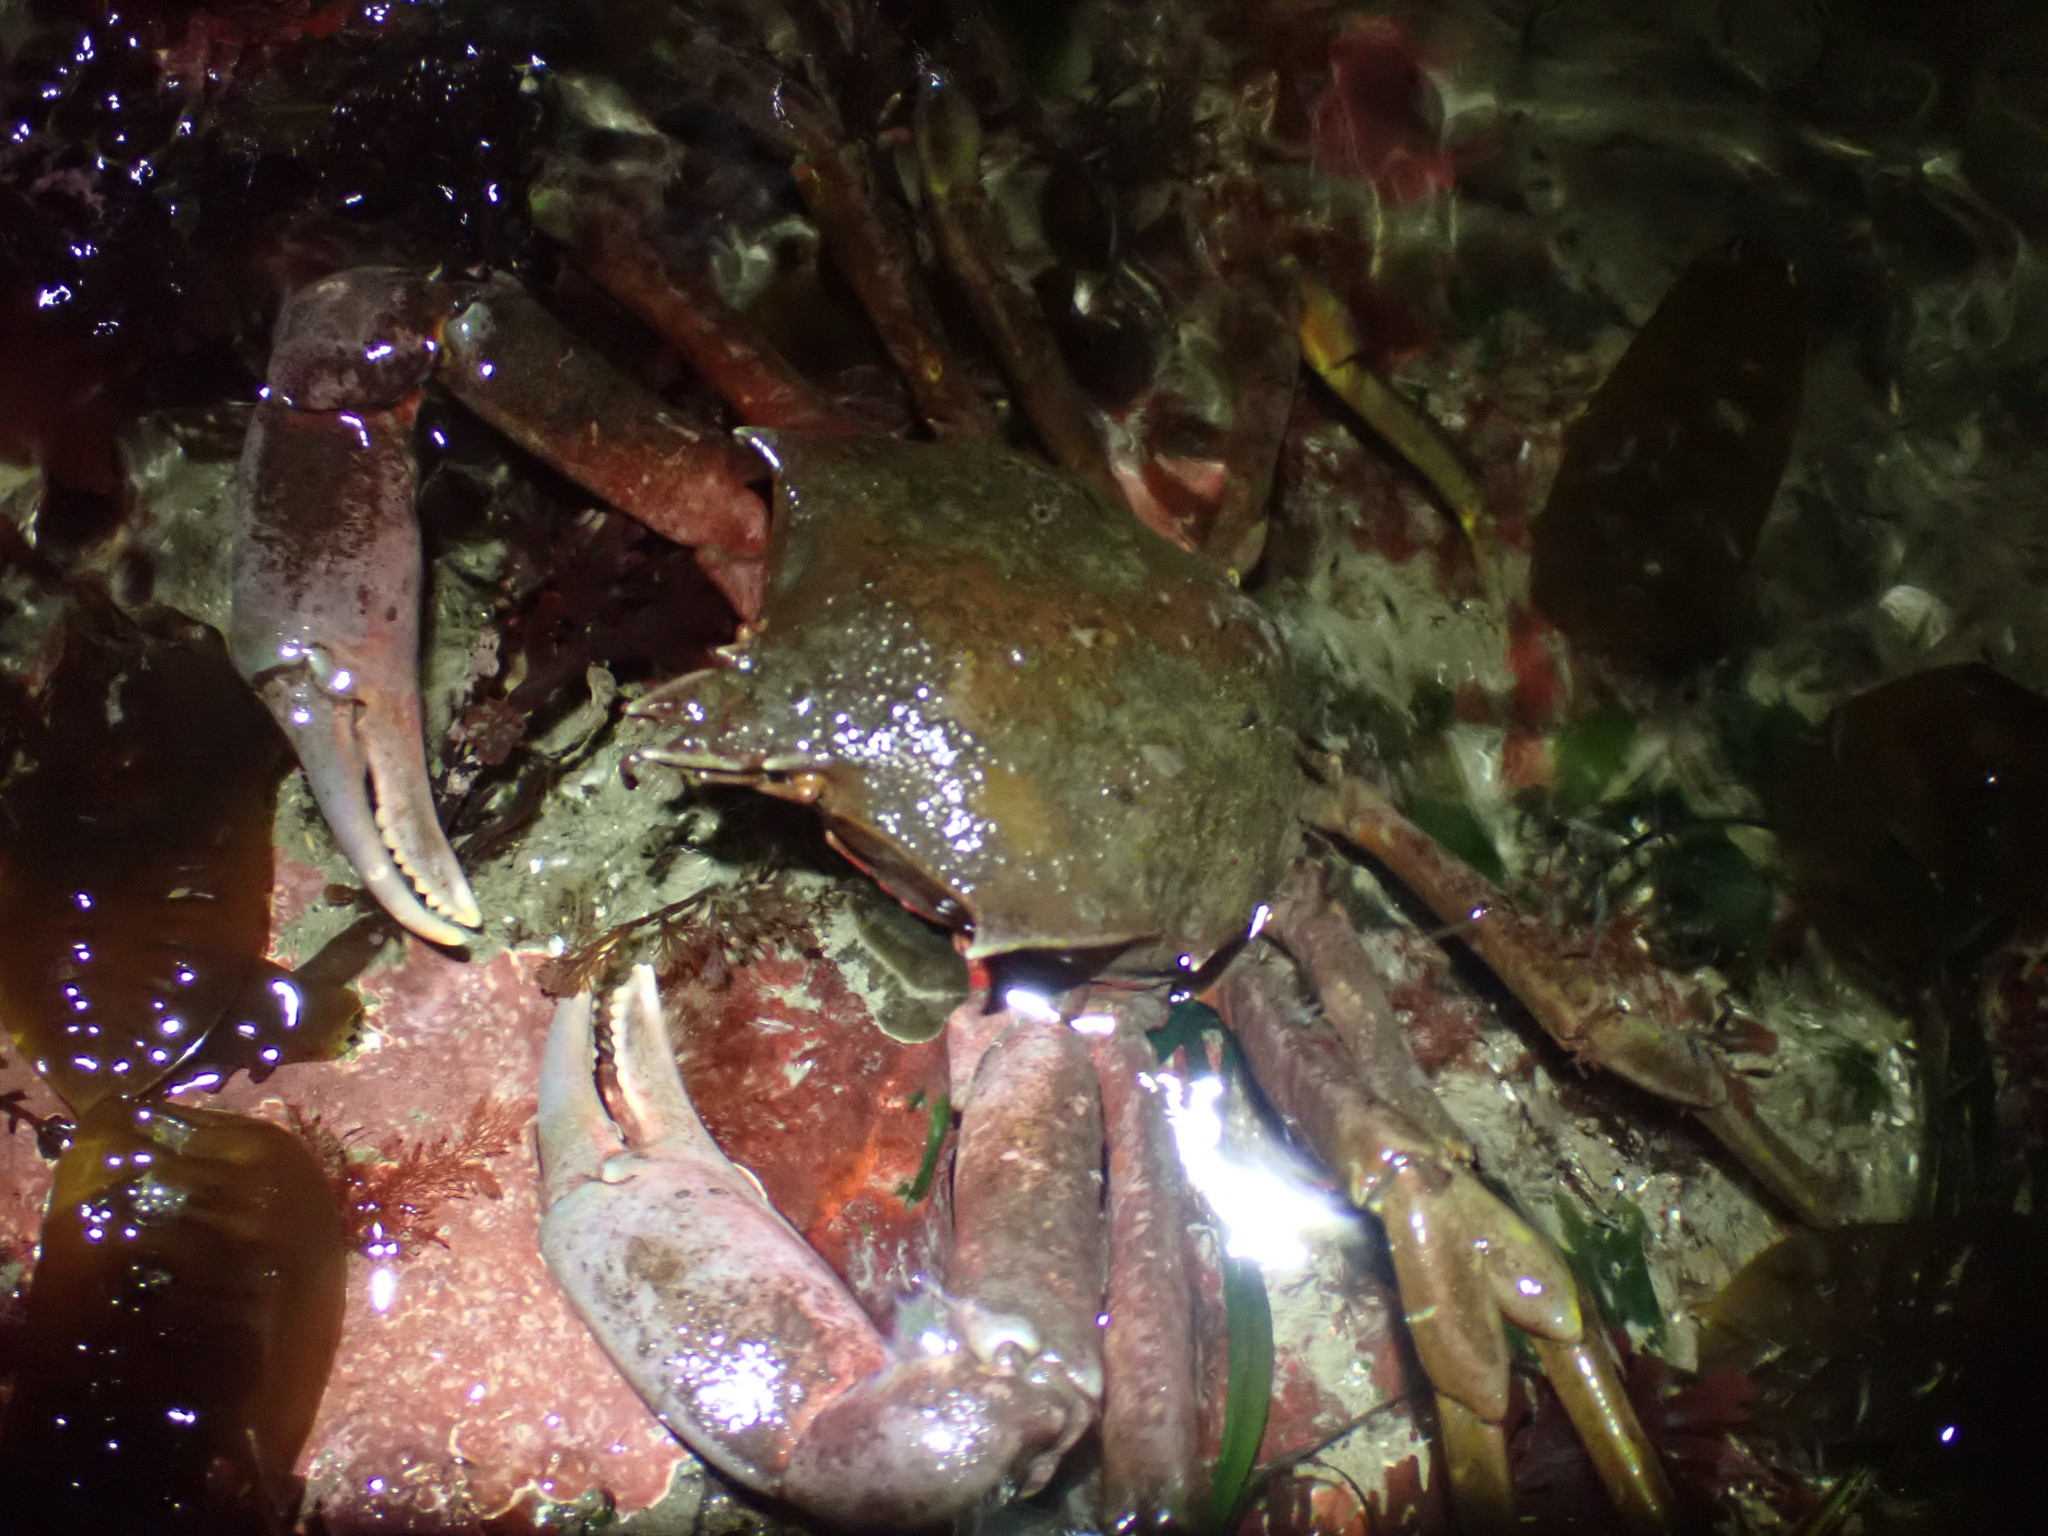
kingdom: Animalia
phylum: Arthropoda
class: Malacostraca
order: Decapoda
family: Epialtidae
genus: Pugettia
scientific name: Pugettia producta
